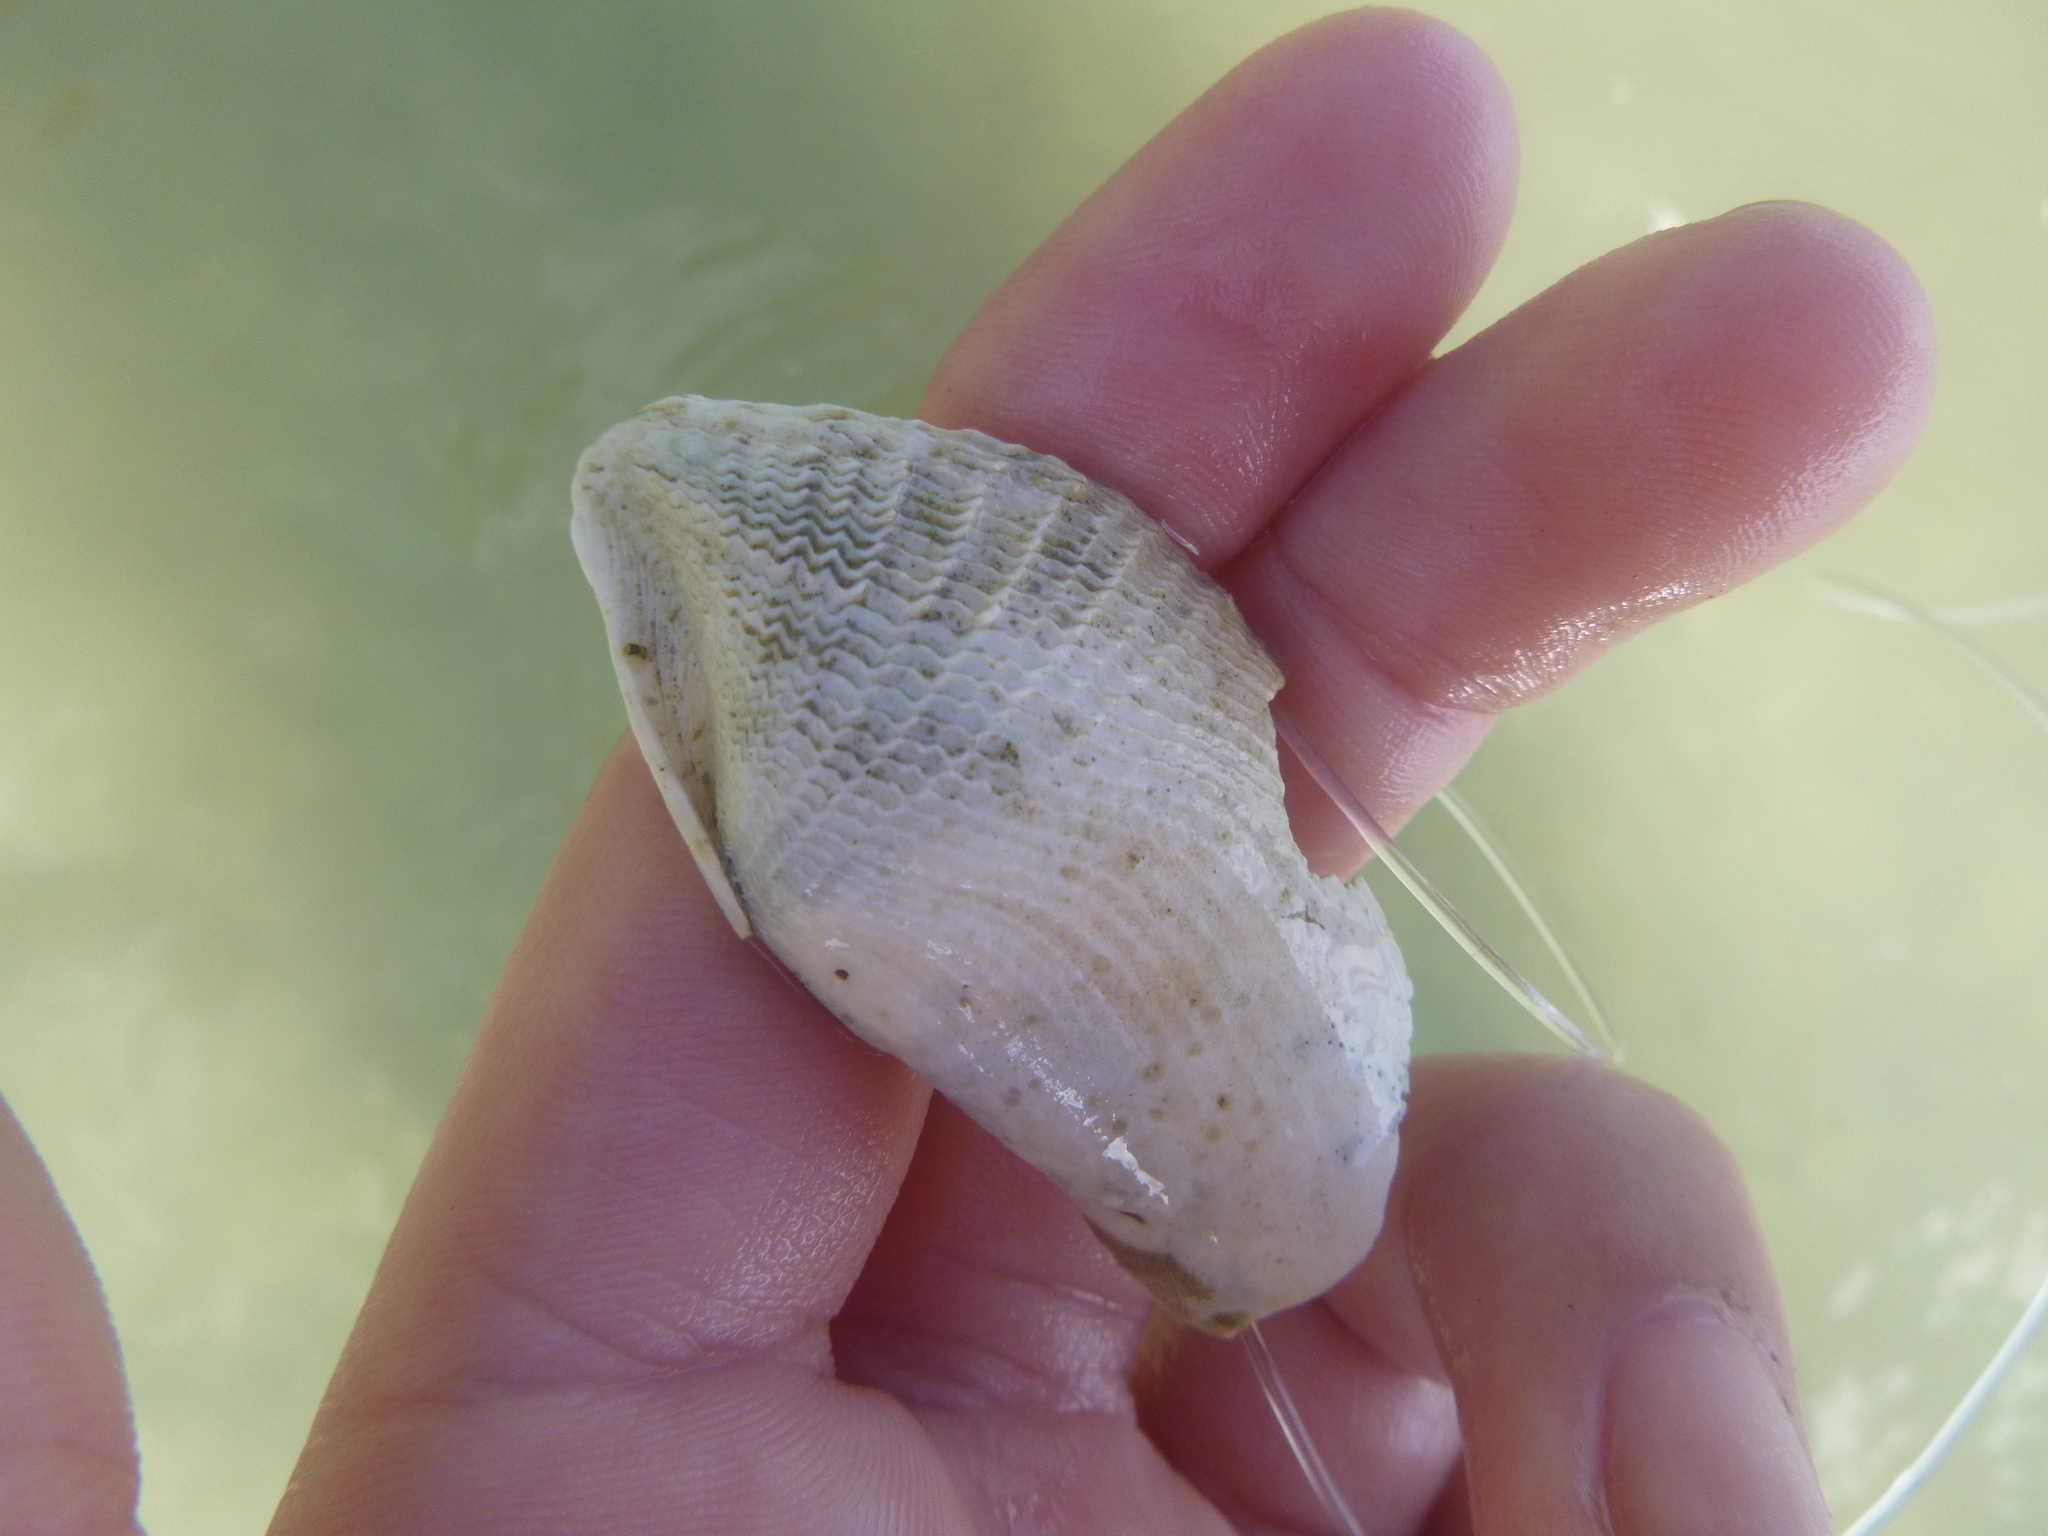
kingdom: Animalia
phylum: Mollusca
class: Bivalvia
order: Myida
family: Pholadidae
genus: Barnea
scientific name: Barnea similis
